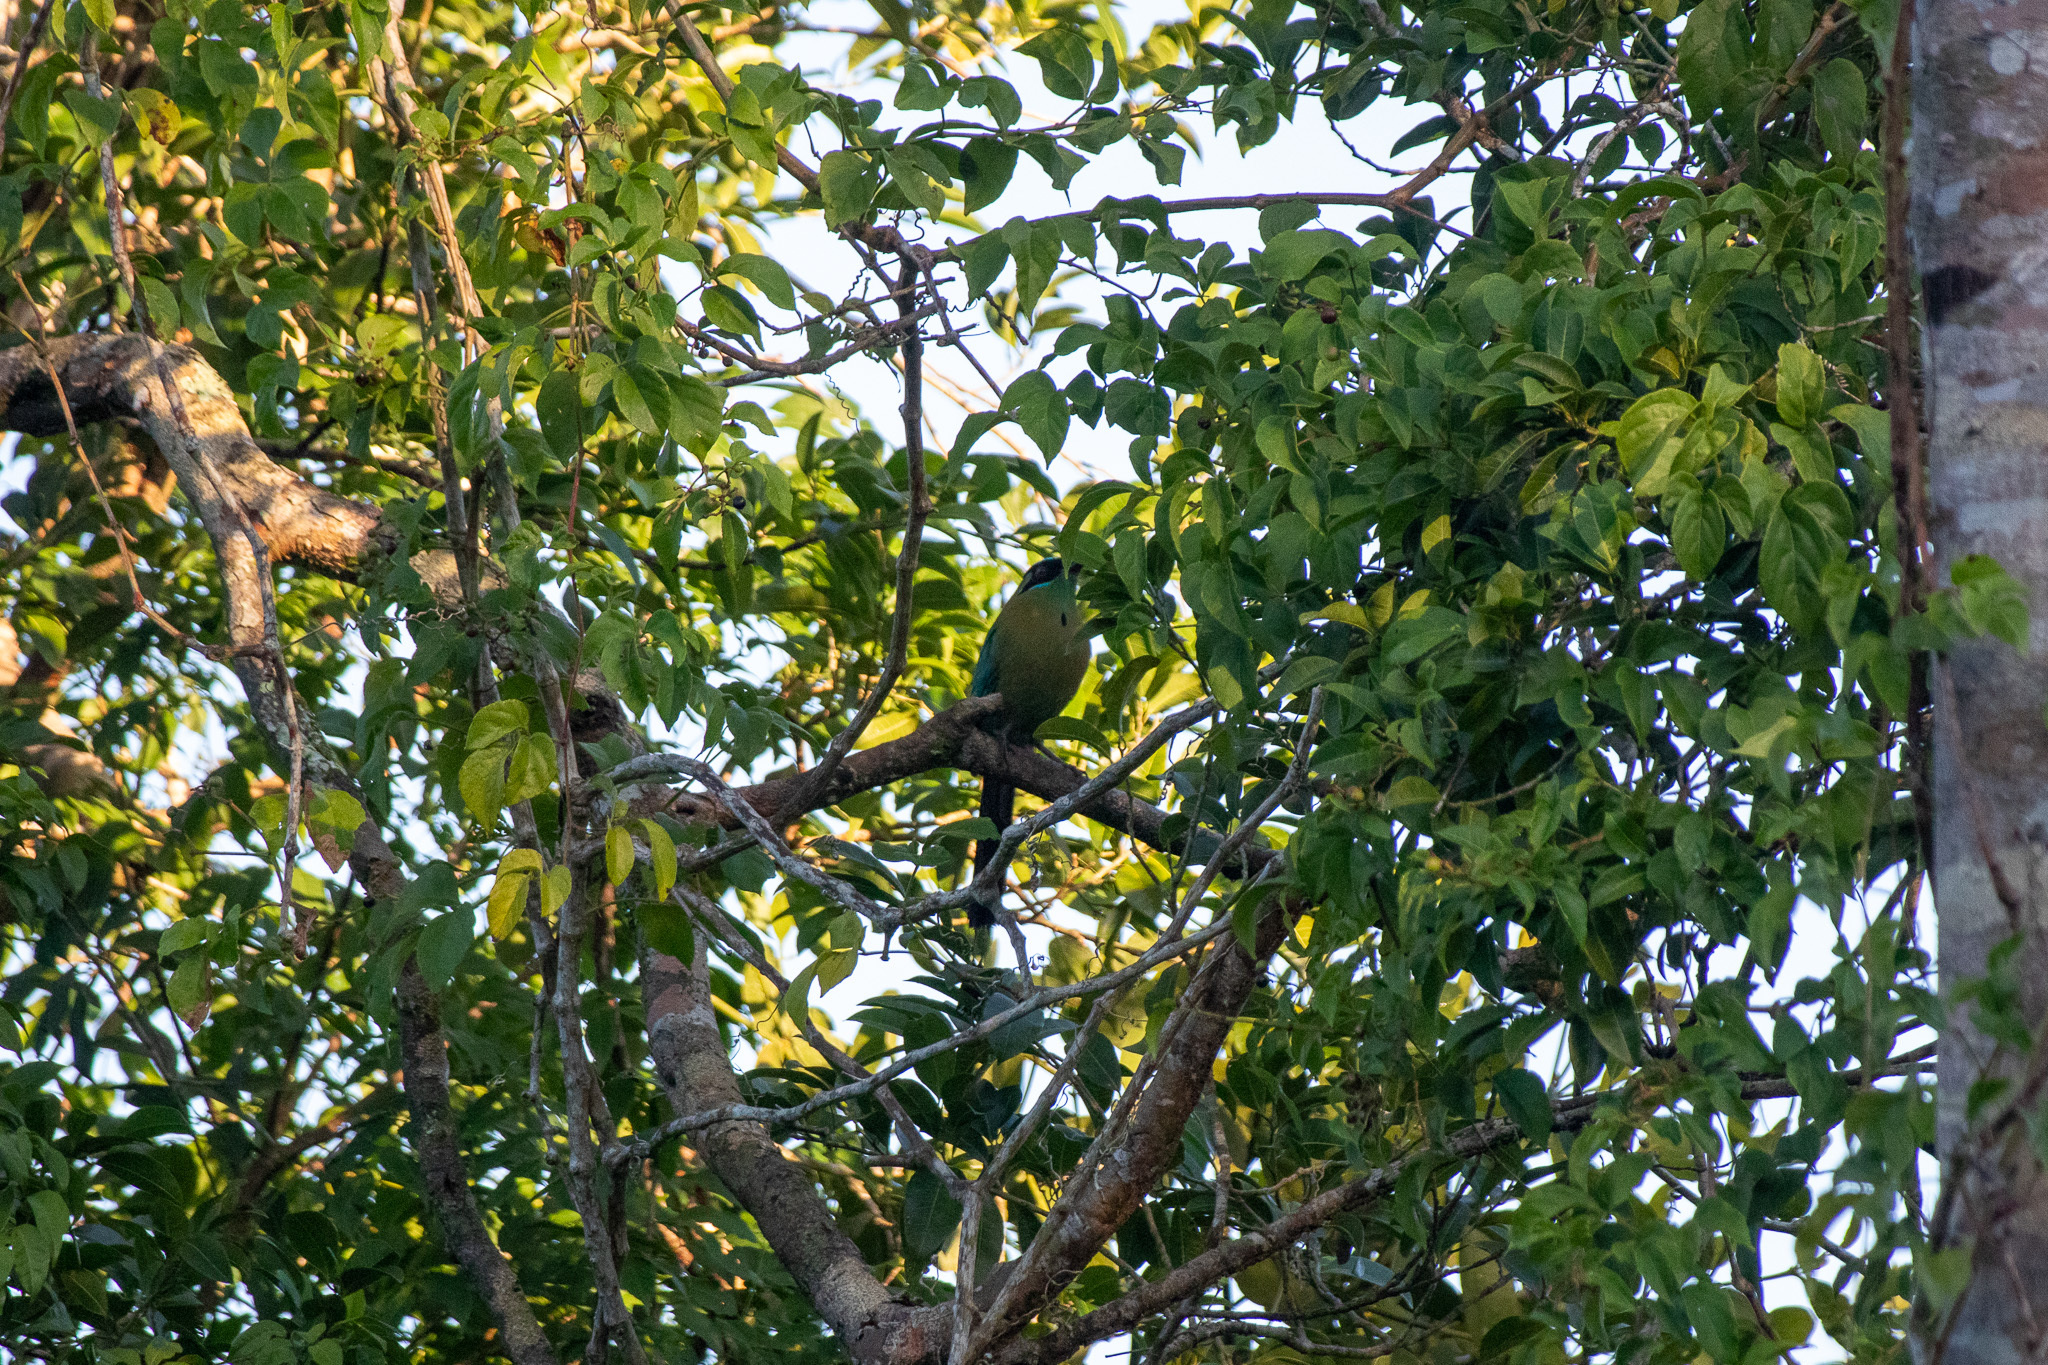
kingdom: Animalia
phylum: Chordata
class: Aves
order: Coraciiformes
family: Momotidae
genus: Momotus
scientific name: Momotus lessonii
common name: Lesson's motmot
